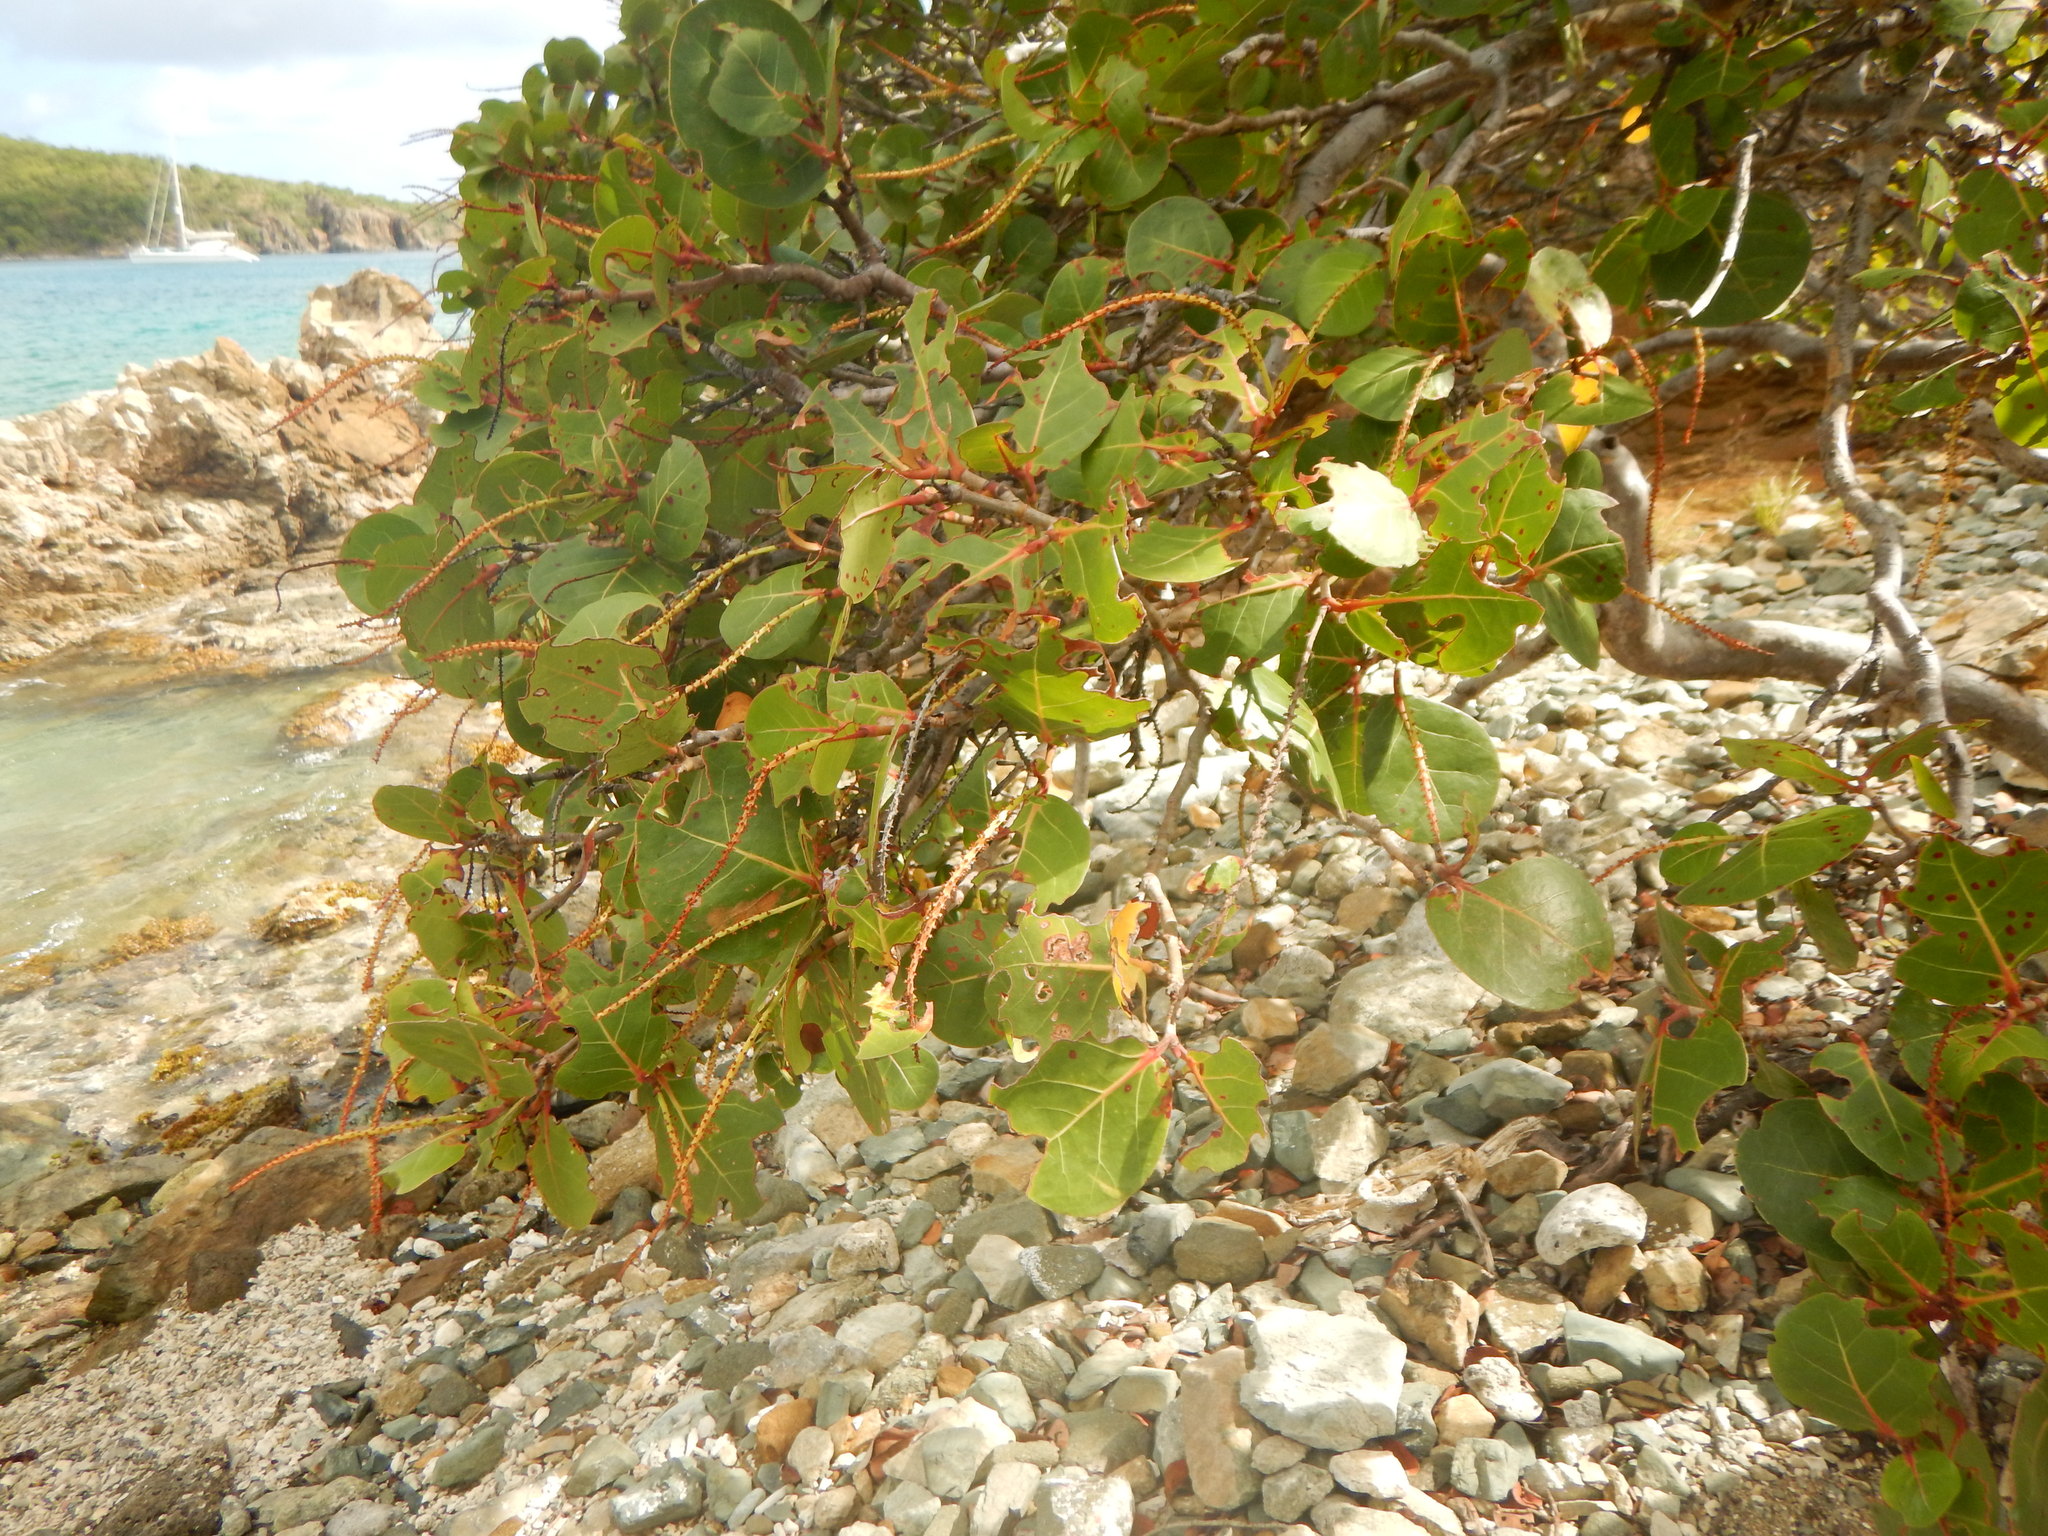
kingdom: Plantae
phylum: Tracheophyta
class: Magnoliopsida
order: Caryophyllales
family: Polygonaceae
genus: Coccoloba
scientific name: Coccoloba uvifera
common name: Seagrape
